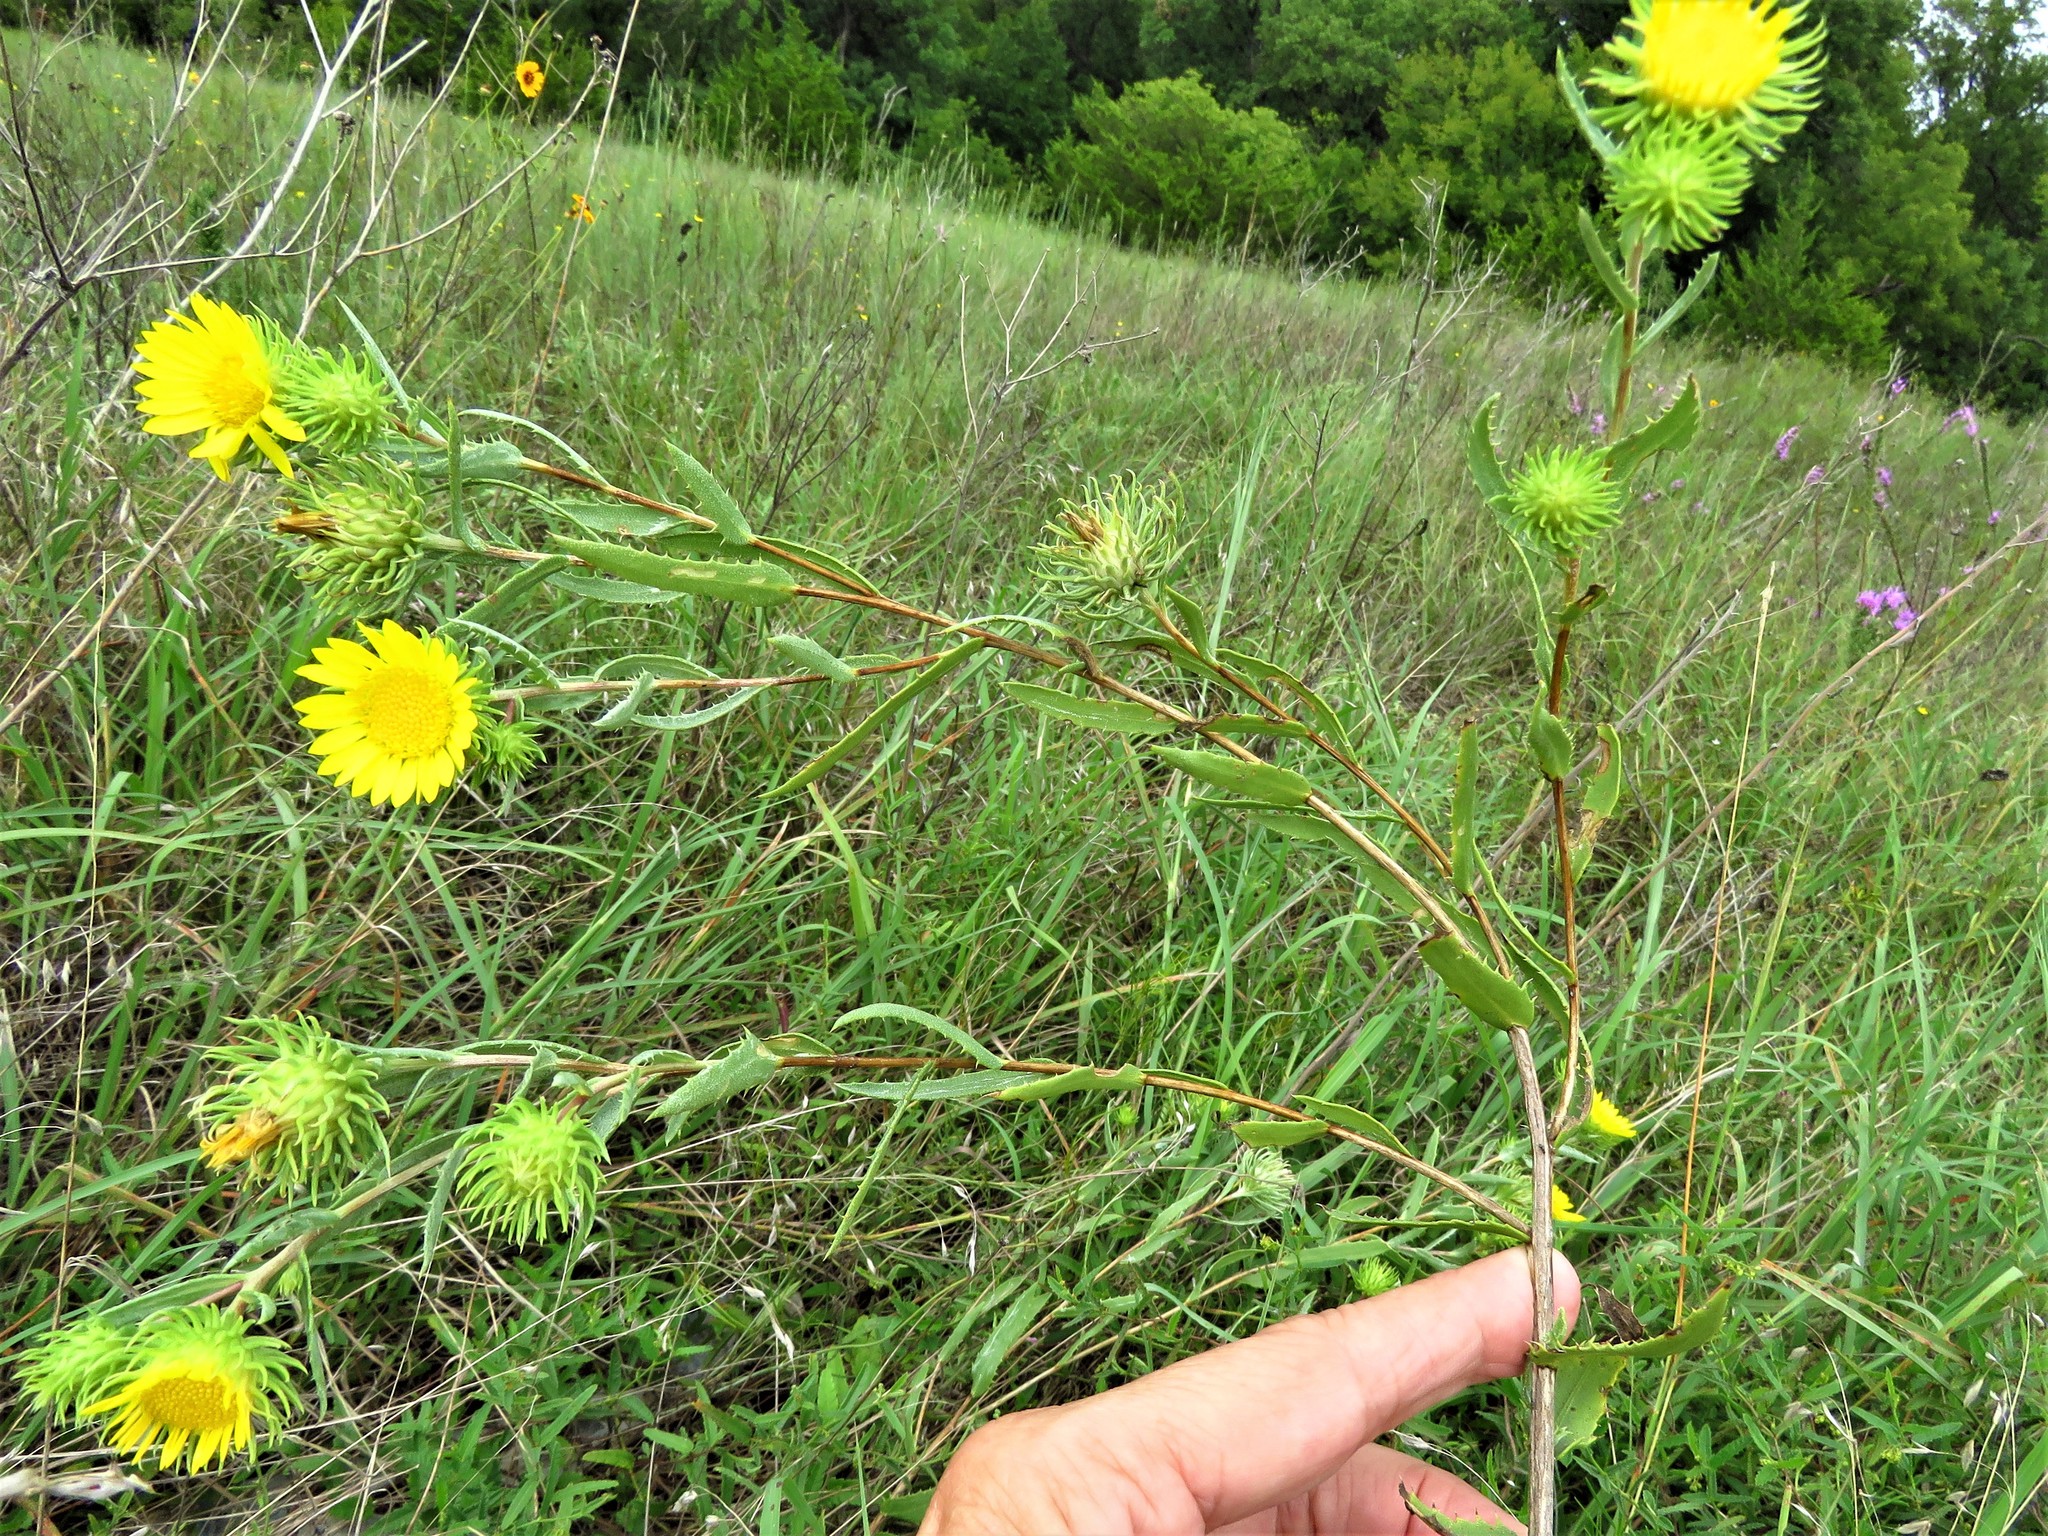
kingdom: Plantae
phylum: Tracheophyta
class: Magnoliopsida
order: Asterales
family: Asteraceae
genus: Grindelia
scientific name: Grindelia lanceolata
